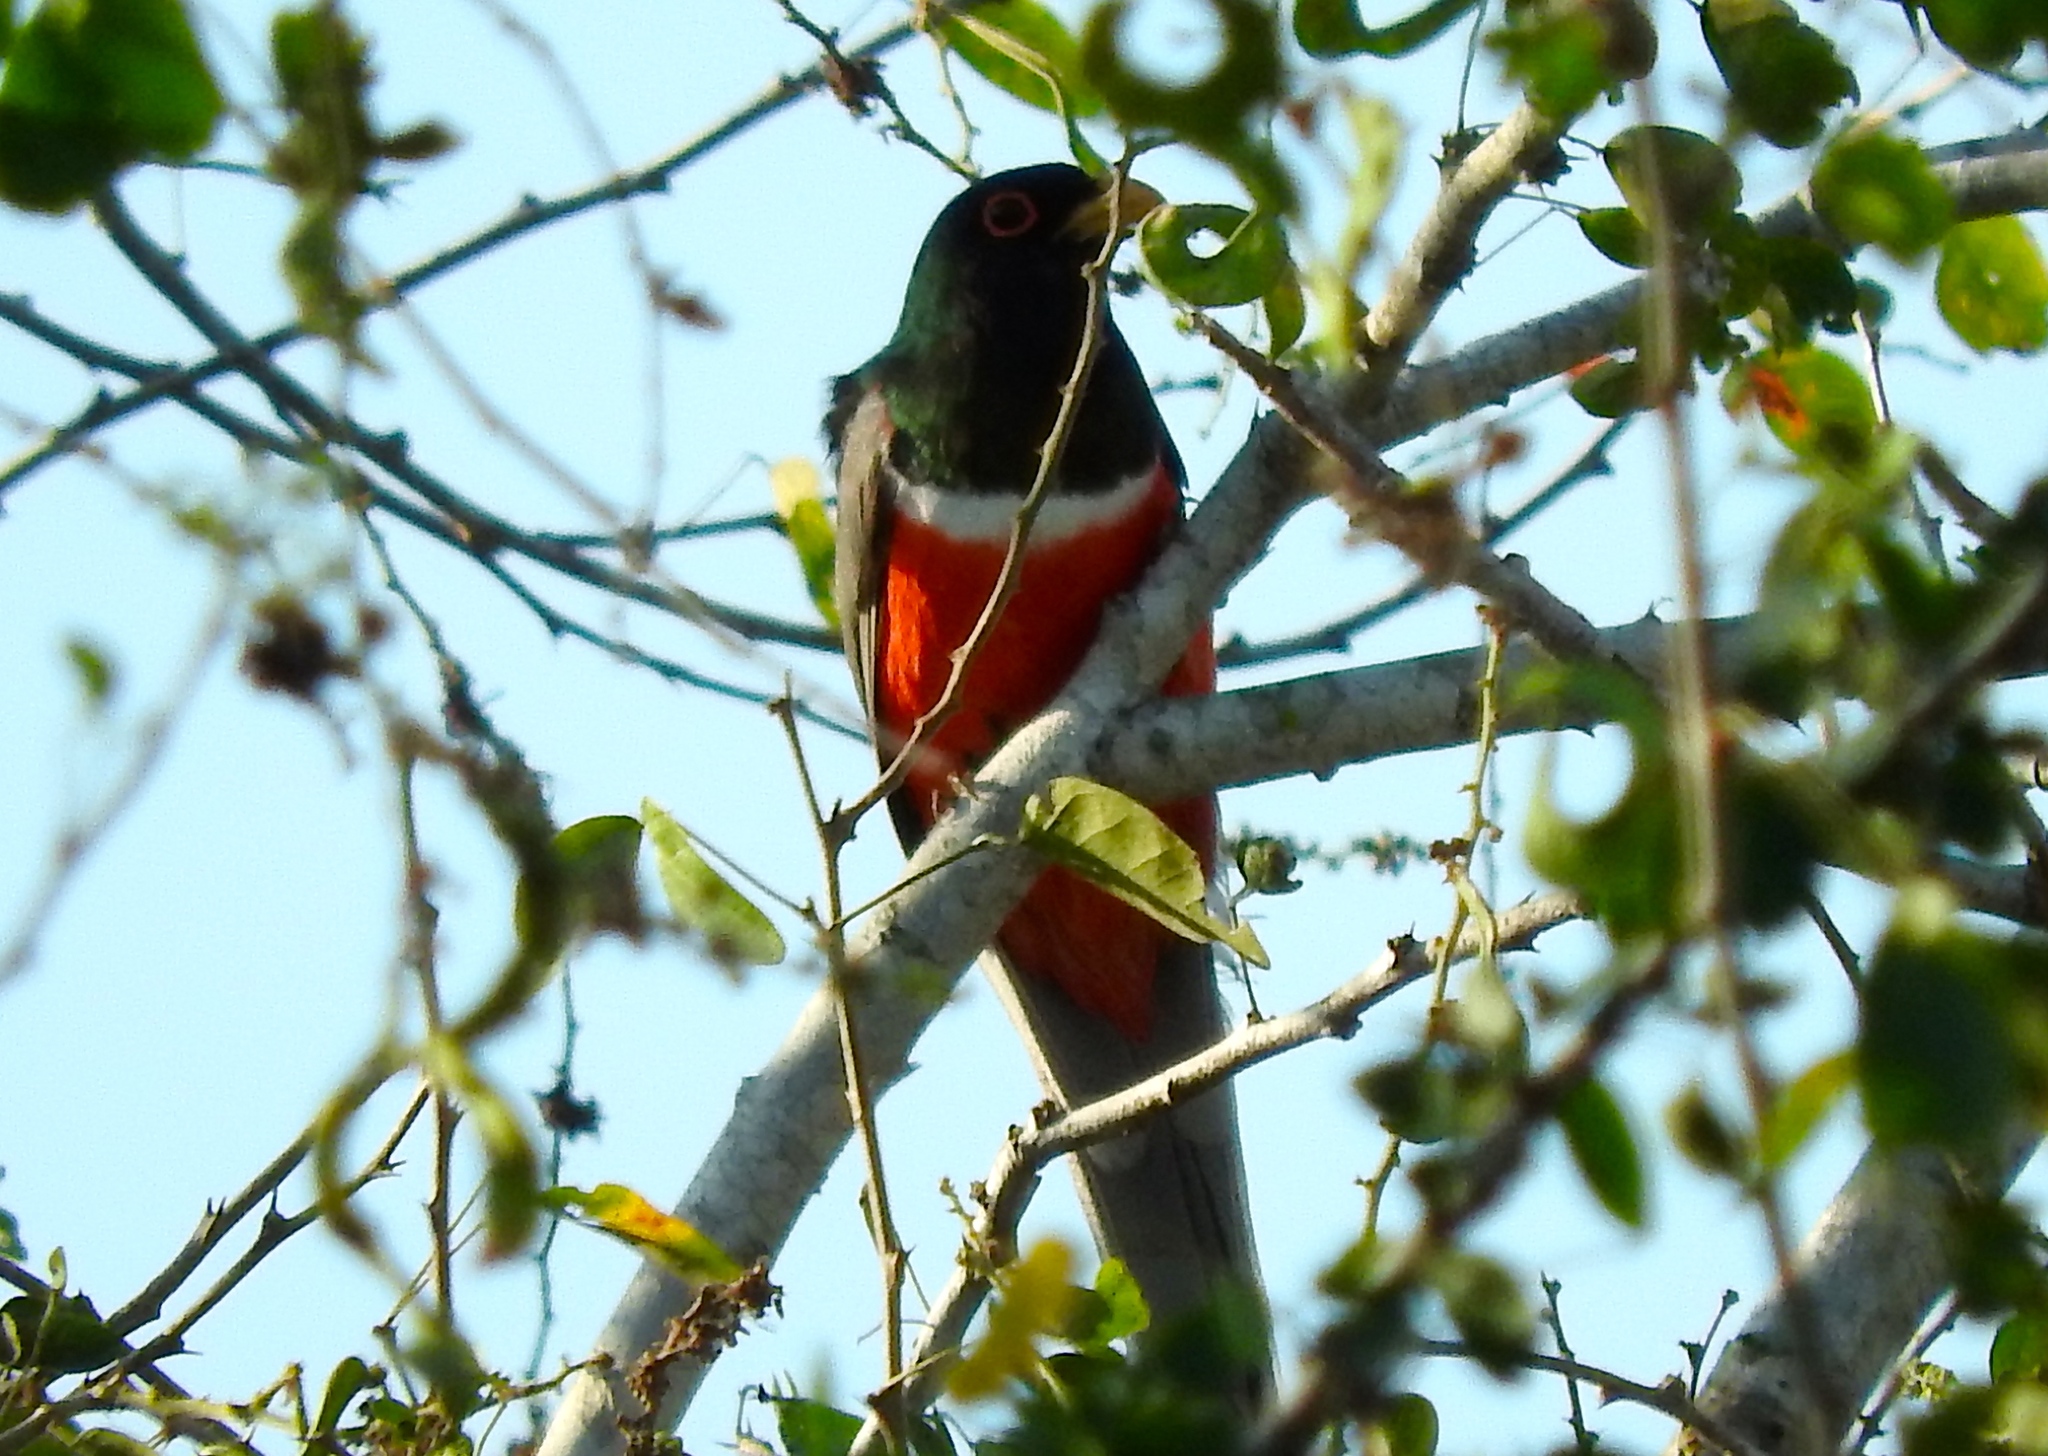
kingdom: Animalia
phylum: Chordata
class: Aves
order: Trogoniformes
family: Trogonidae
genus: Trogon
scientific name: Trogon elegans
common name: Elegant trogon
